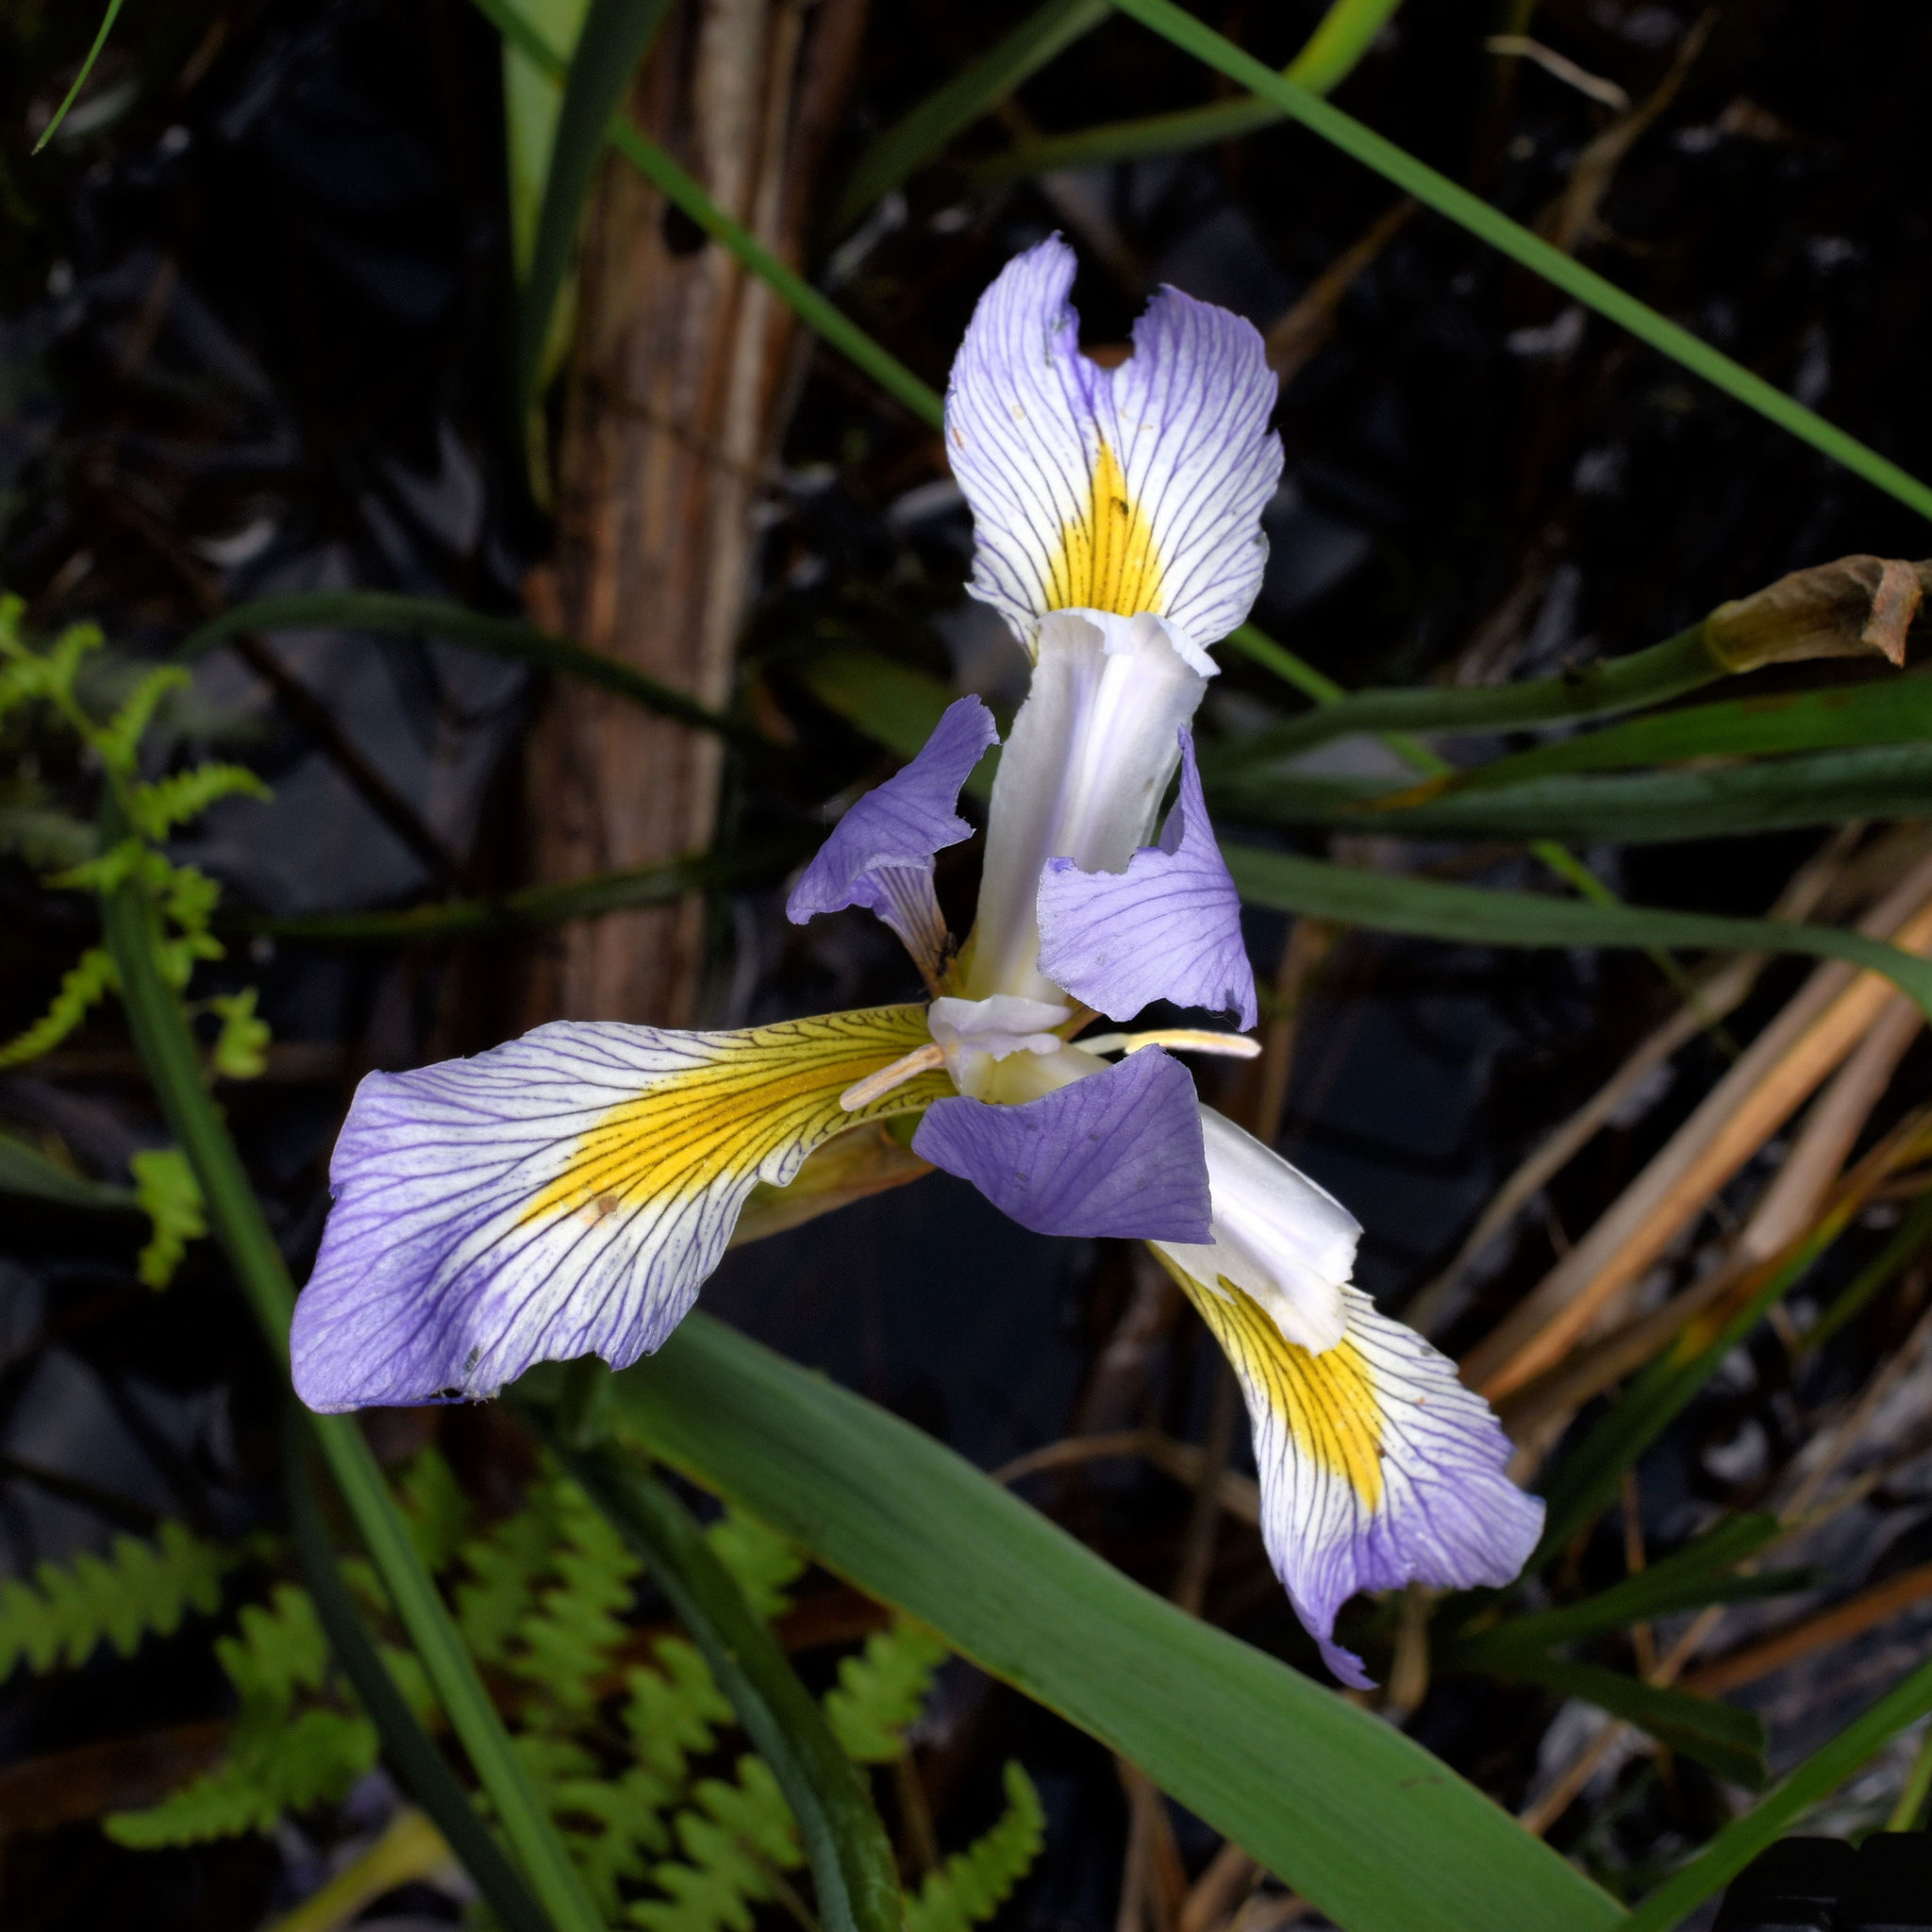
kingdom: Plantae
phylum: Tracheophyta
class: Liliopsida
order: Asparagales
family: Iridaceae
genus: Iris
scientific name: Iris versicolor
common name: Purple iris
